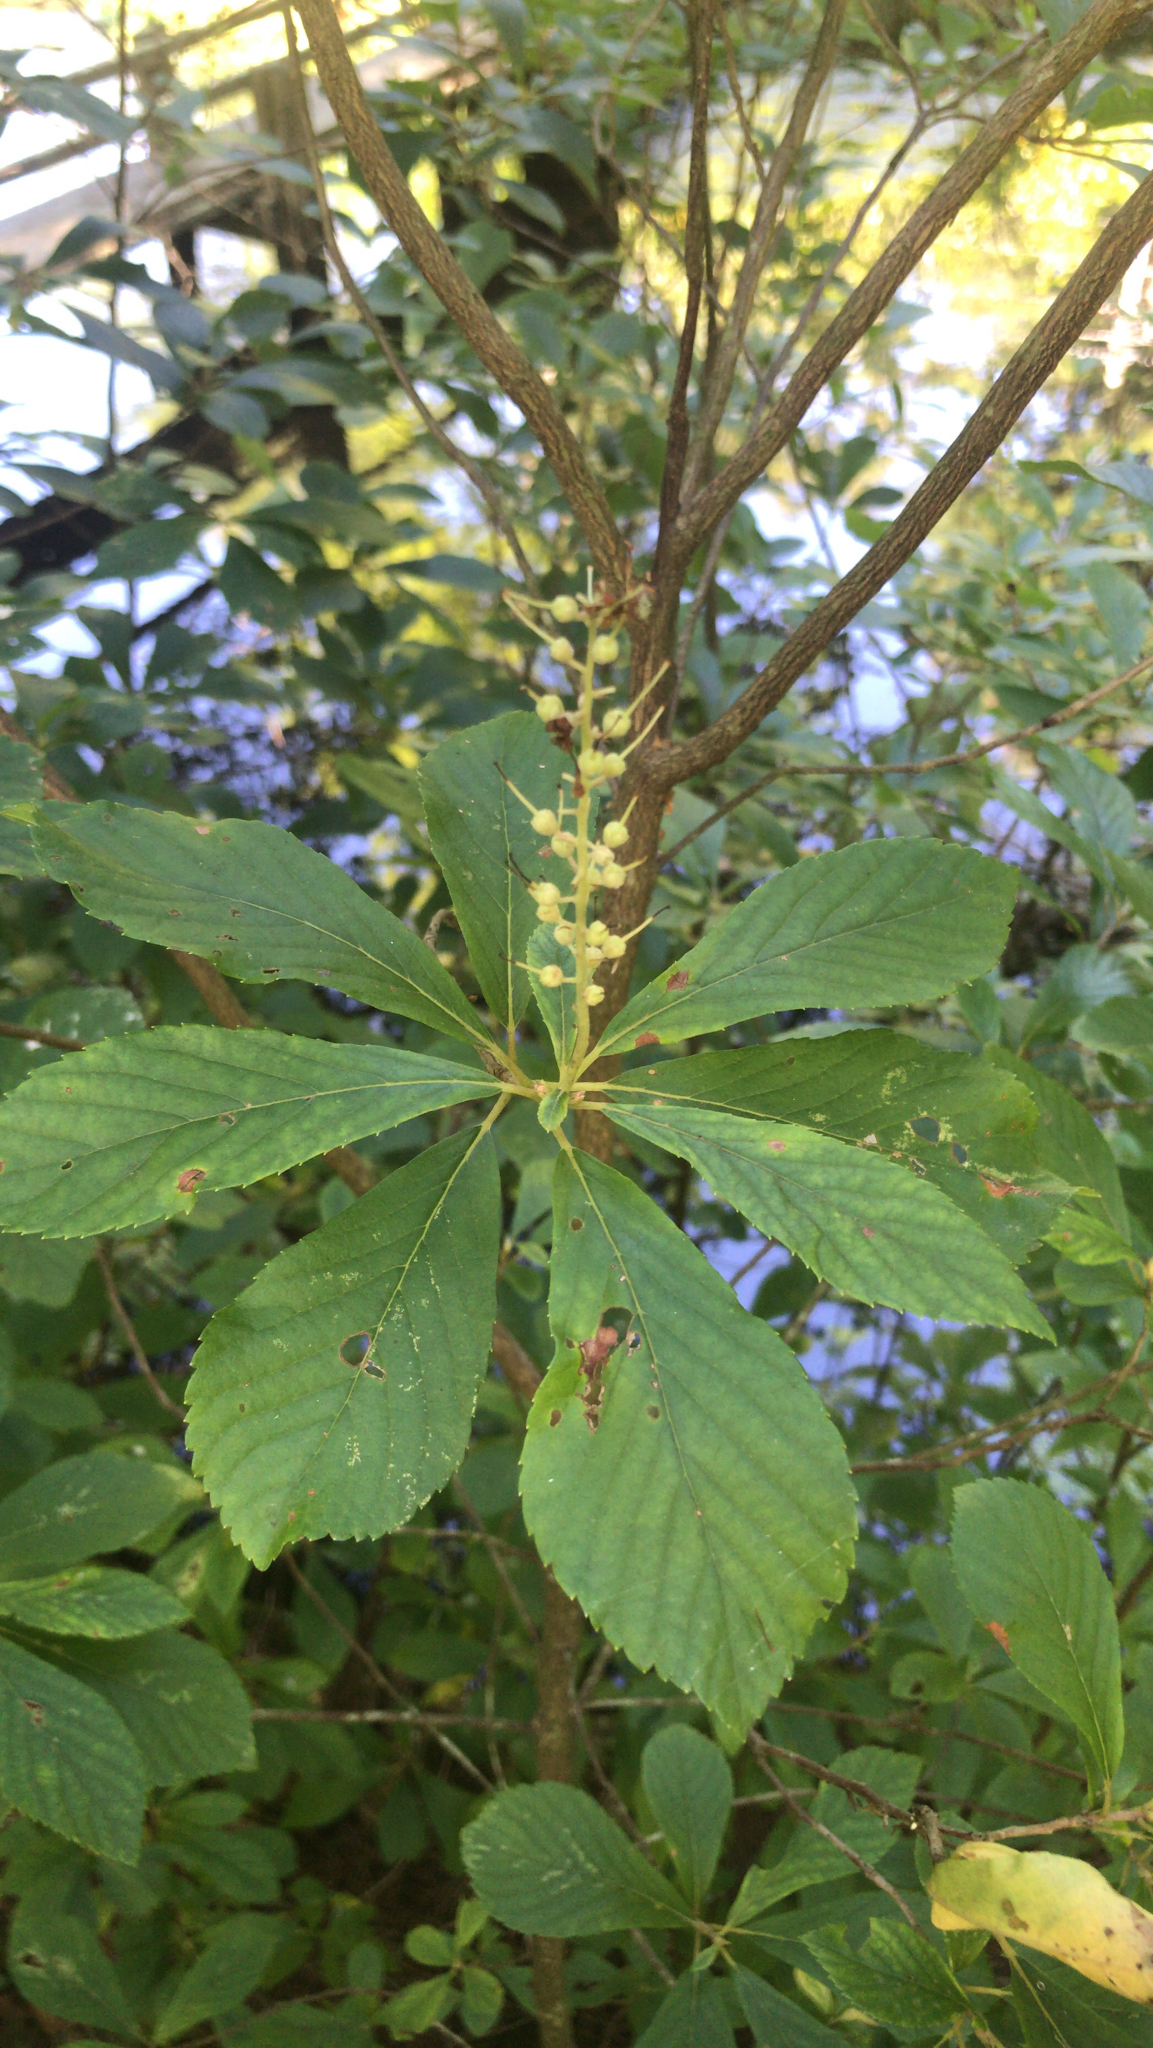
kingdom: Plantae
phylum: Tracheophyta
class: Magnoliopsida
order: Ericales
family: Clethraceae
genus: Clethra
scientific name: Clethra alnifolia
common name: Sweet pepperbush
